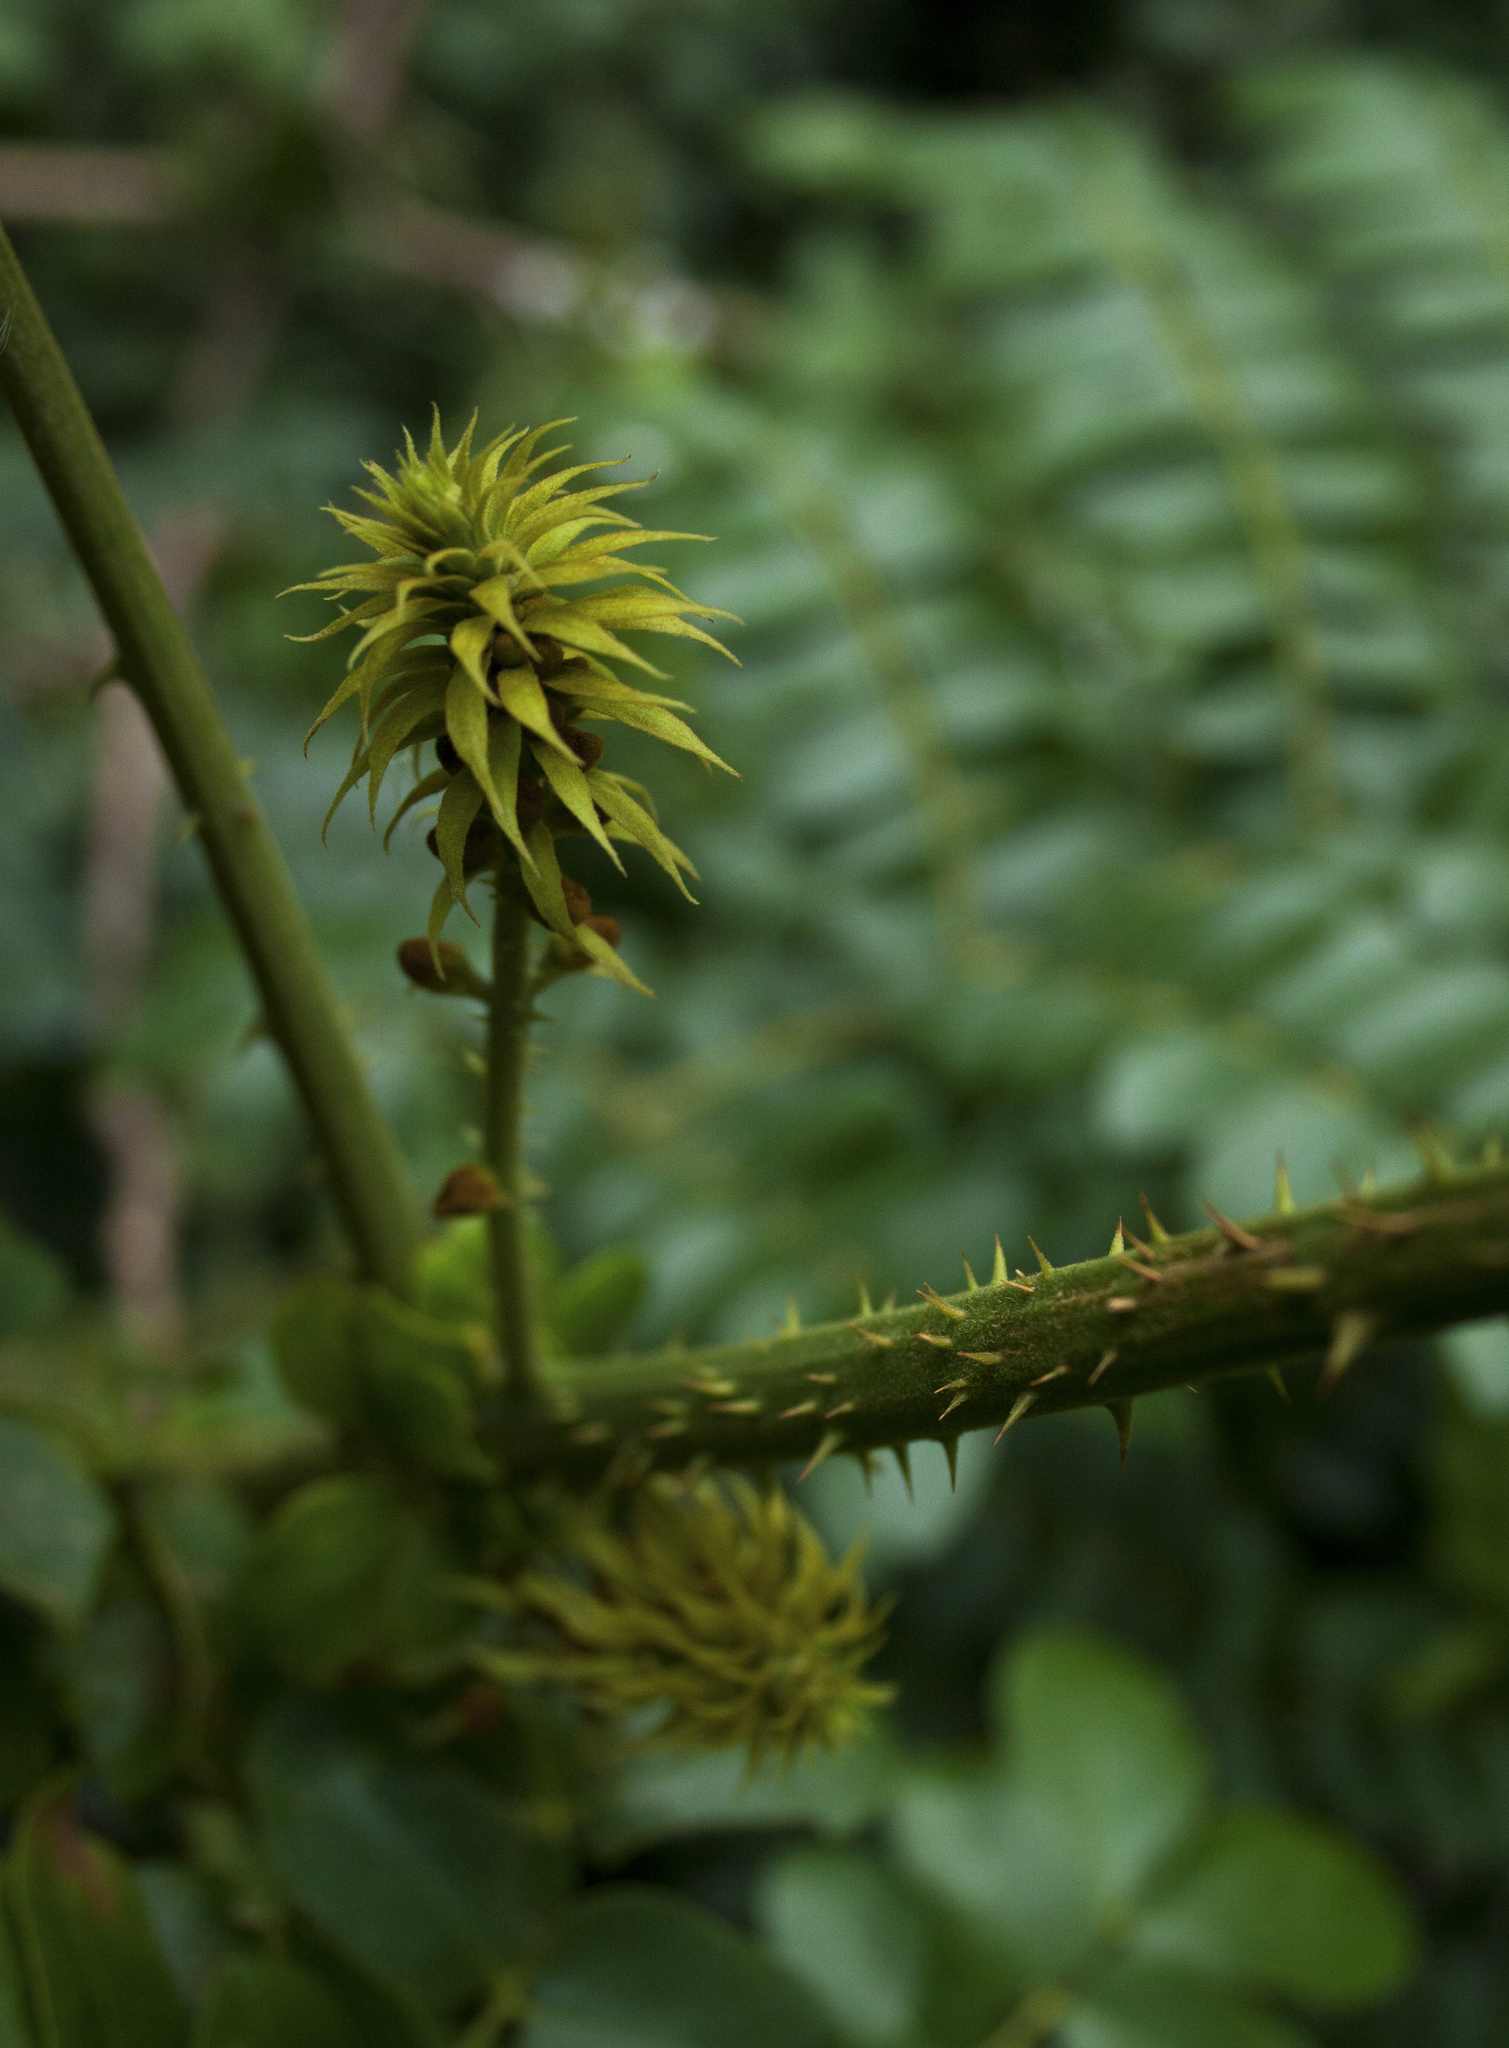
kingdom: Plantae
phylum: Tracheophyta
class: Magnoliopsida
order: Fabales
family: Fabaceae
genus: Guilandina
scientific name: Guilandina bonduc
